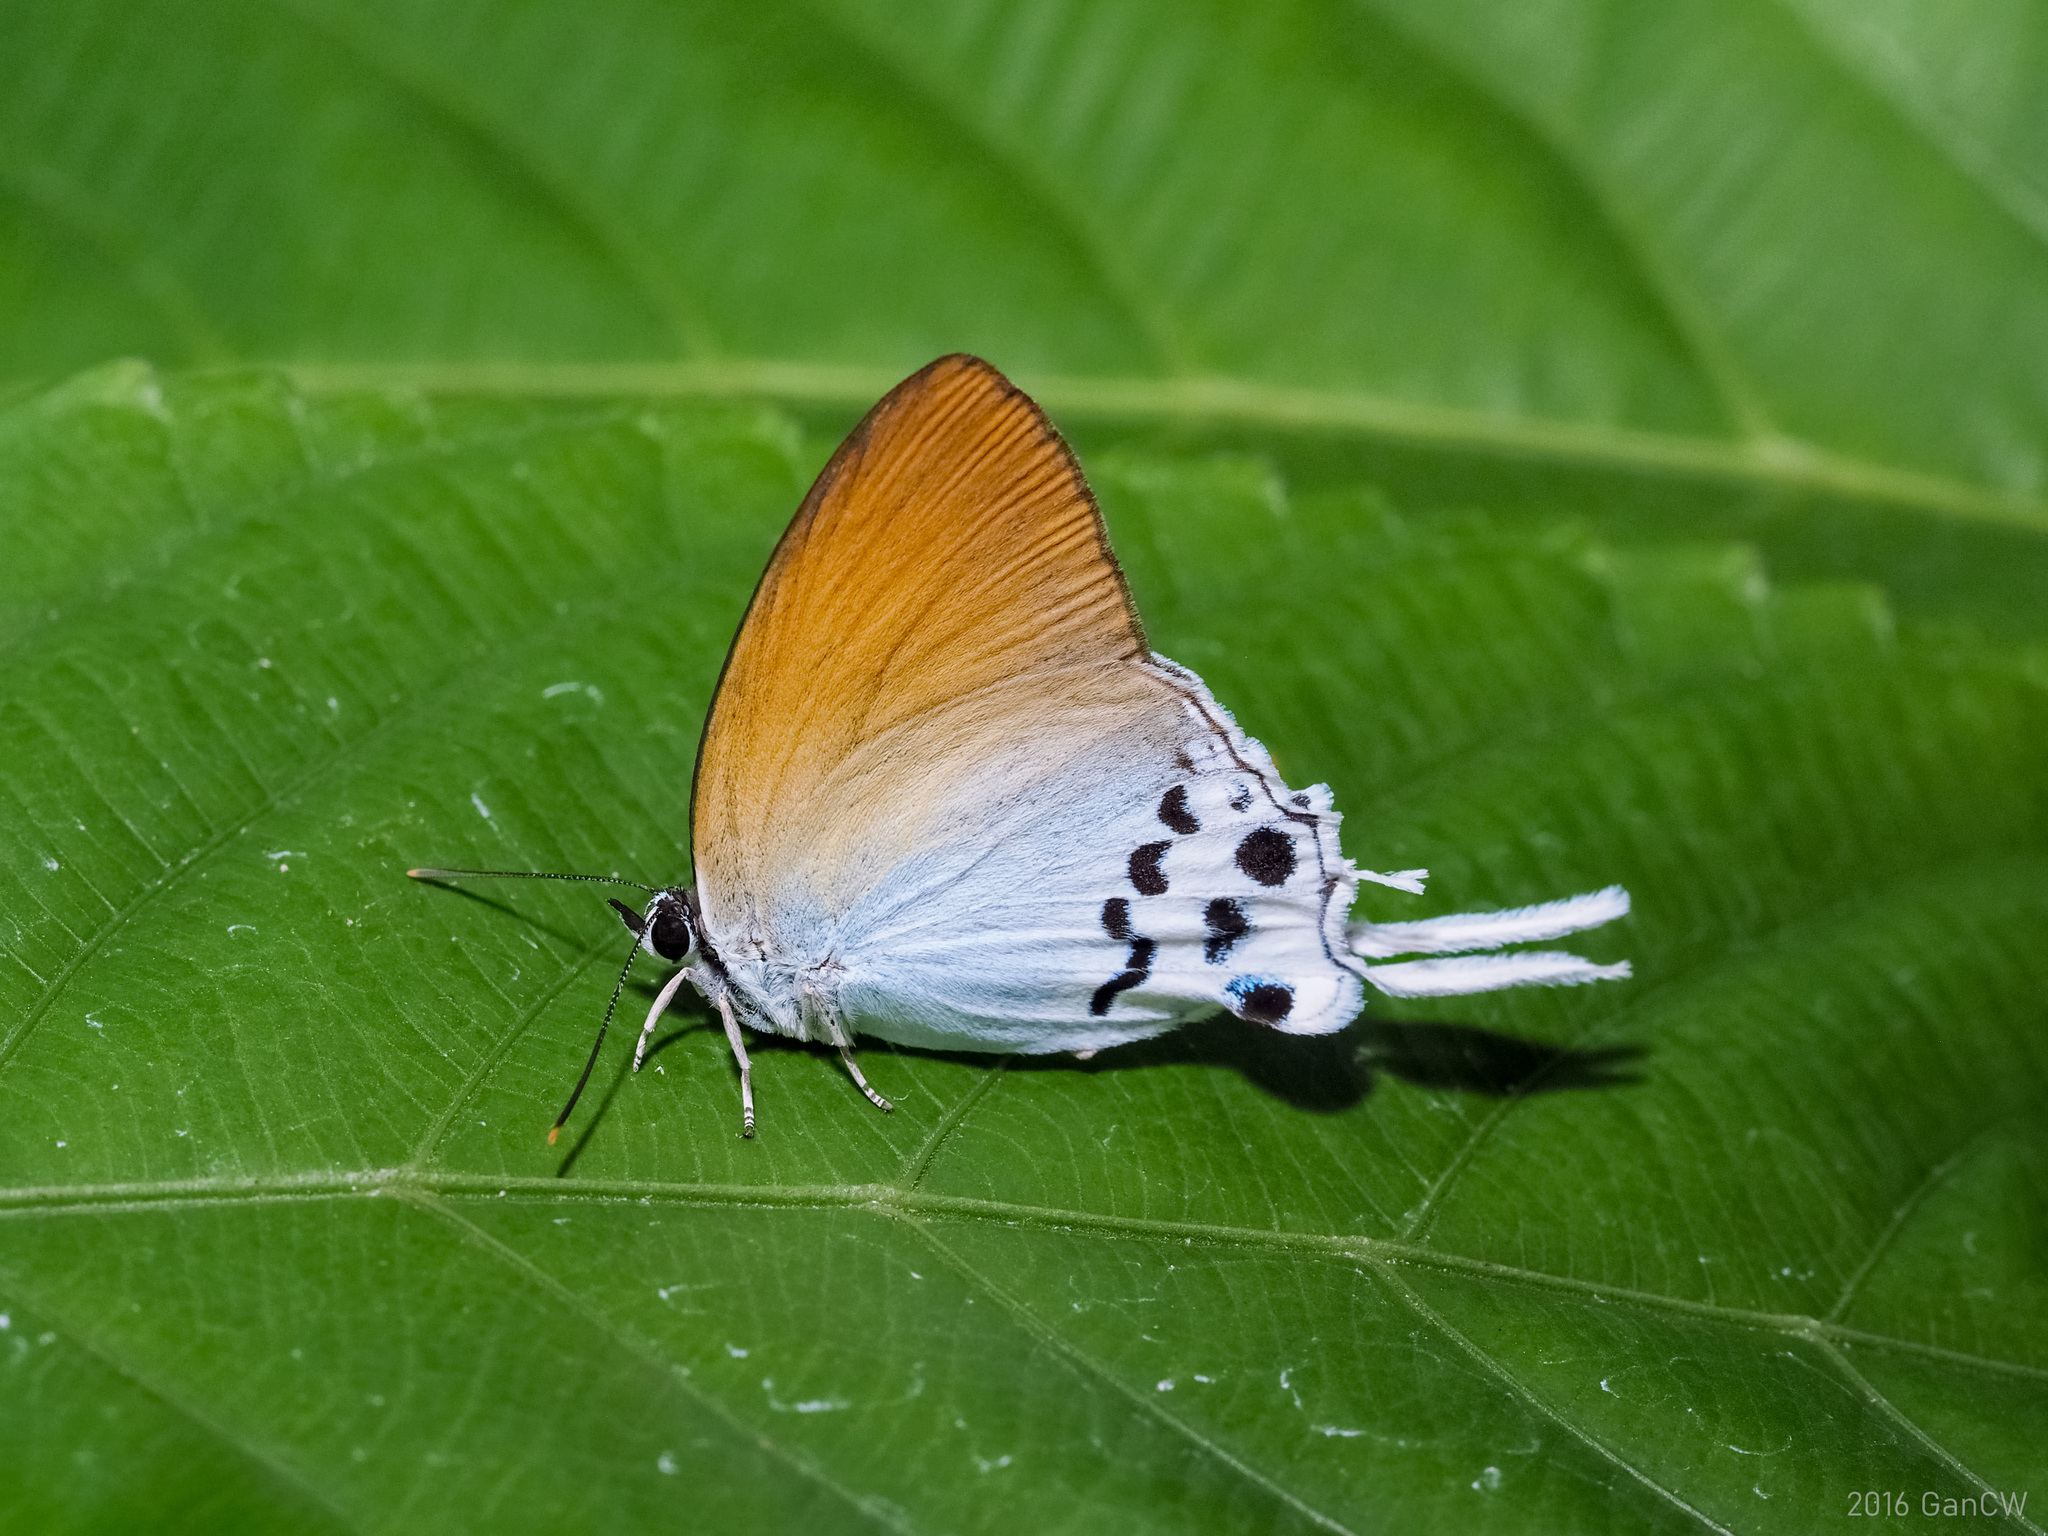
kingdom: Animalia
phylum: Arthropoda
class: Insecta
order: Lepidoptera
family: Lycaenidae
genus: Thrix
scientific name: Thrix
